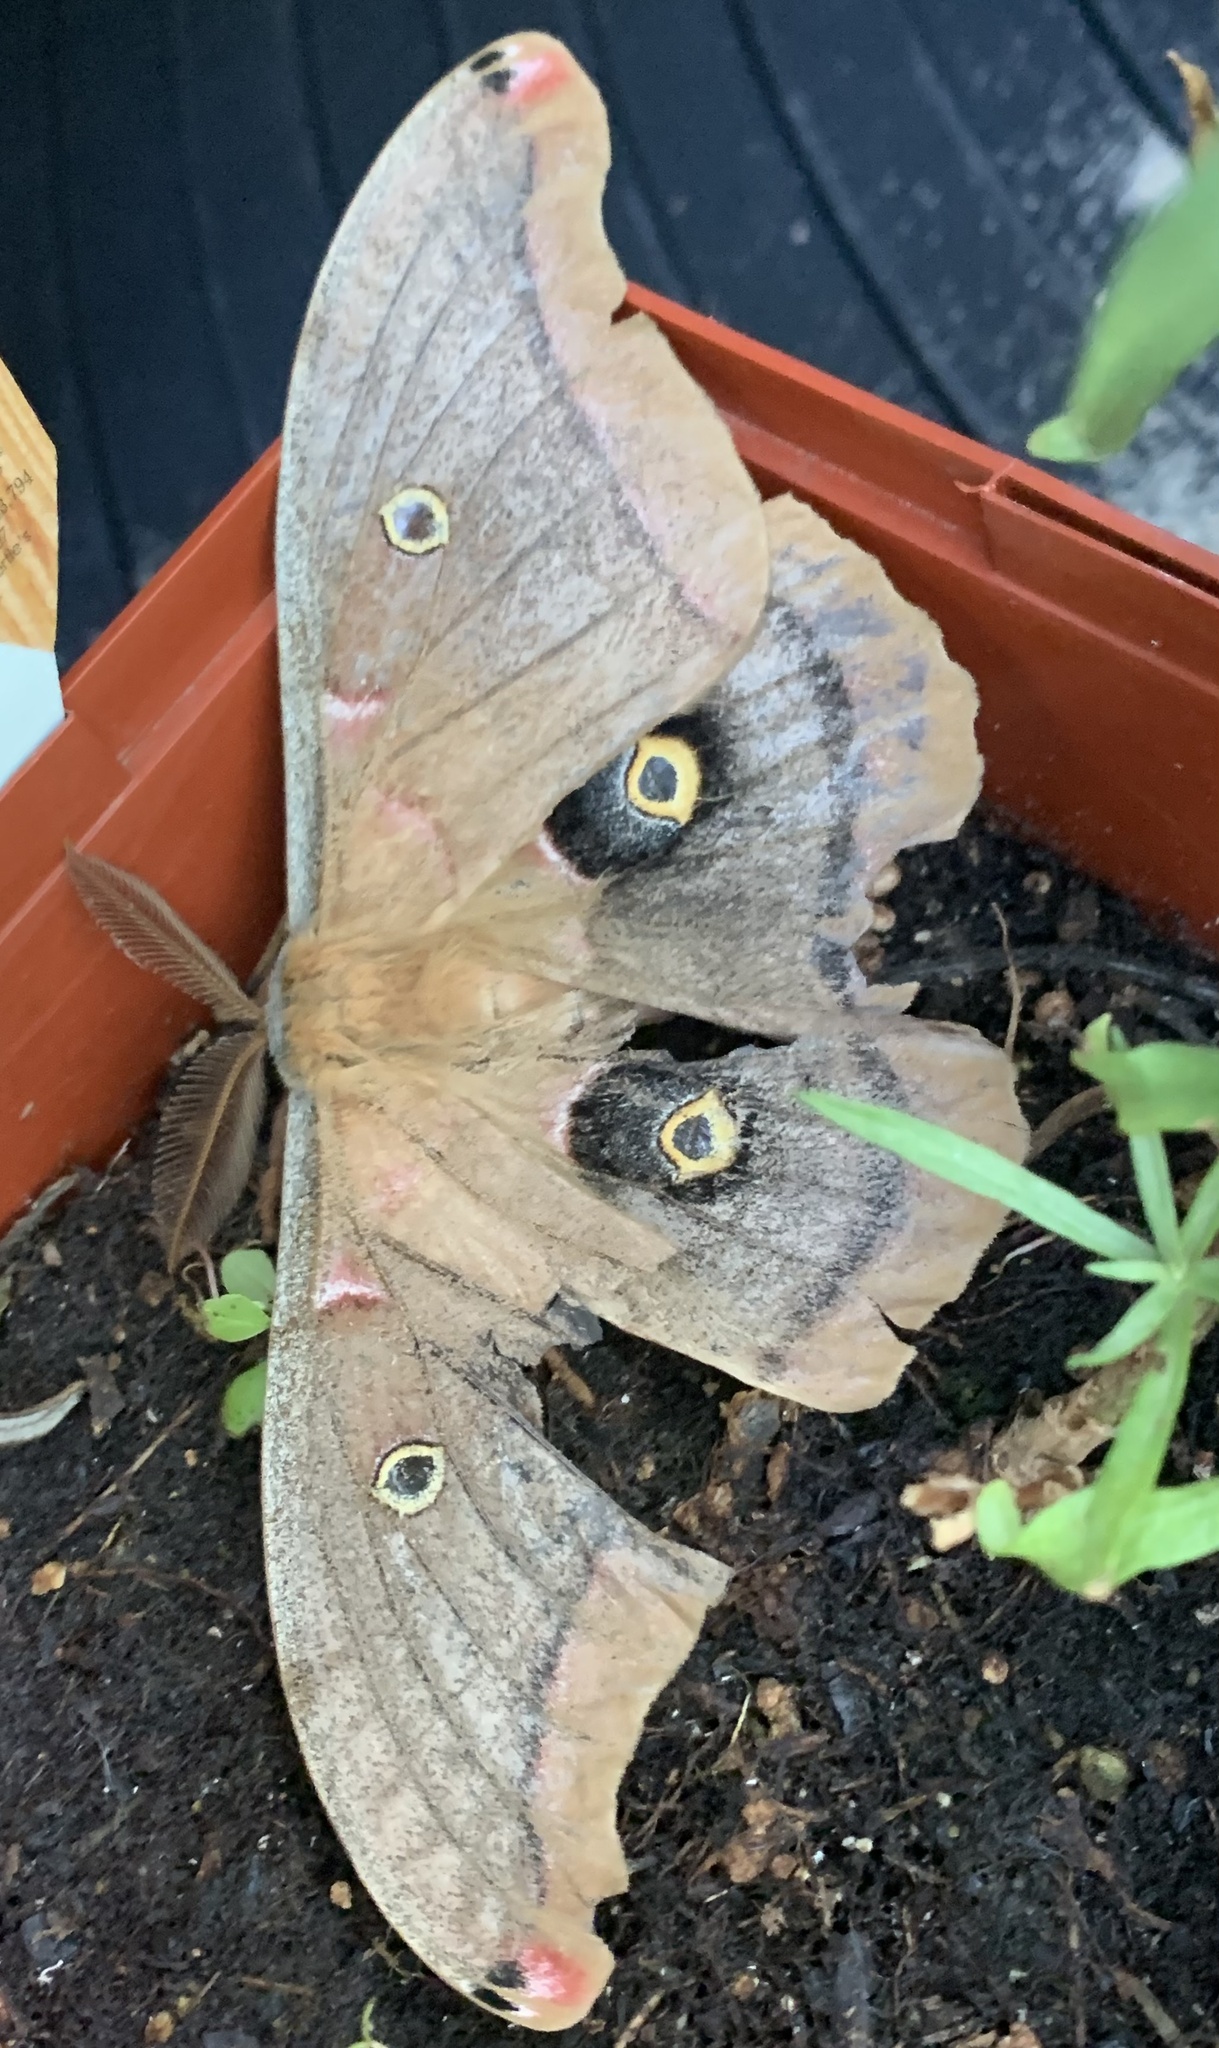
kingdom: Animalia
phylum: Arthropoda
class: Insecta
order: Lepidoptera
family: Saturniidae
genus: Antheraea
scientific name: Antheraea polyphemus
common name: Polyphemus moth
